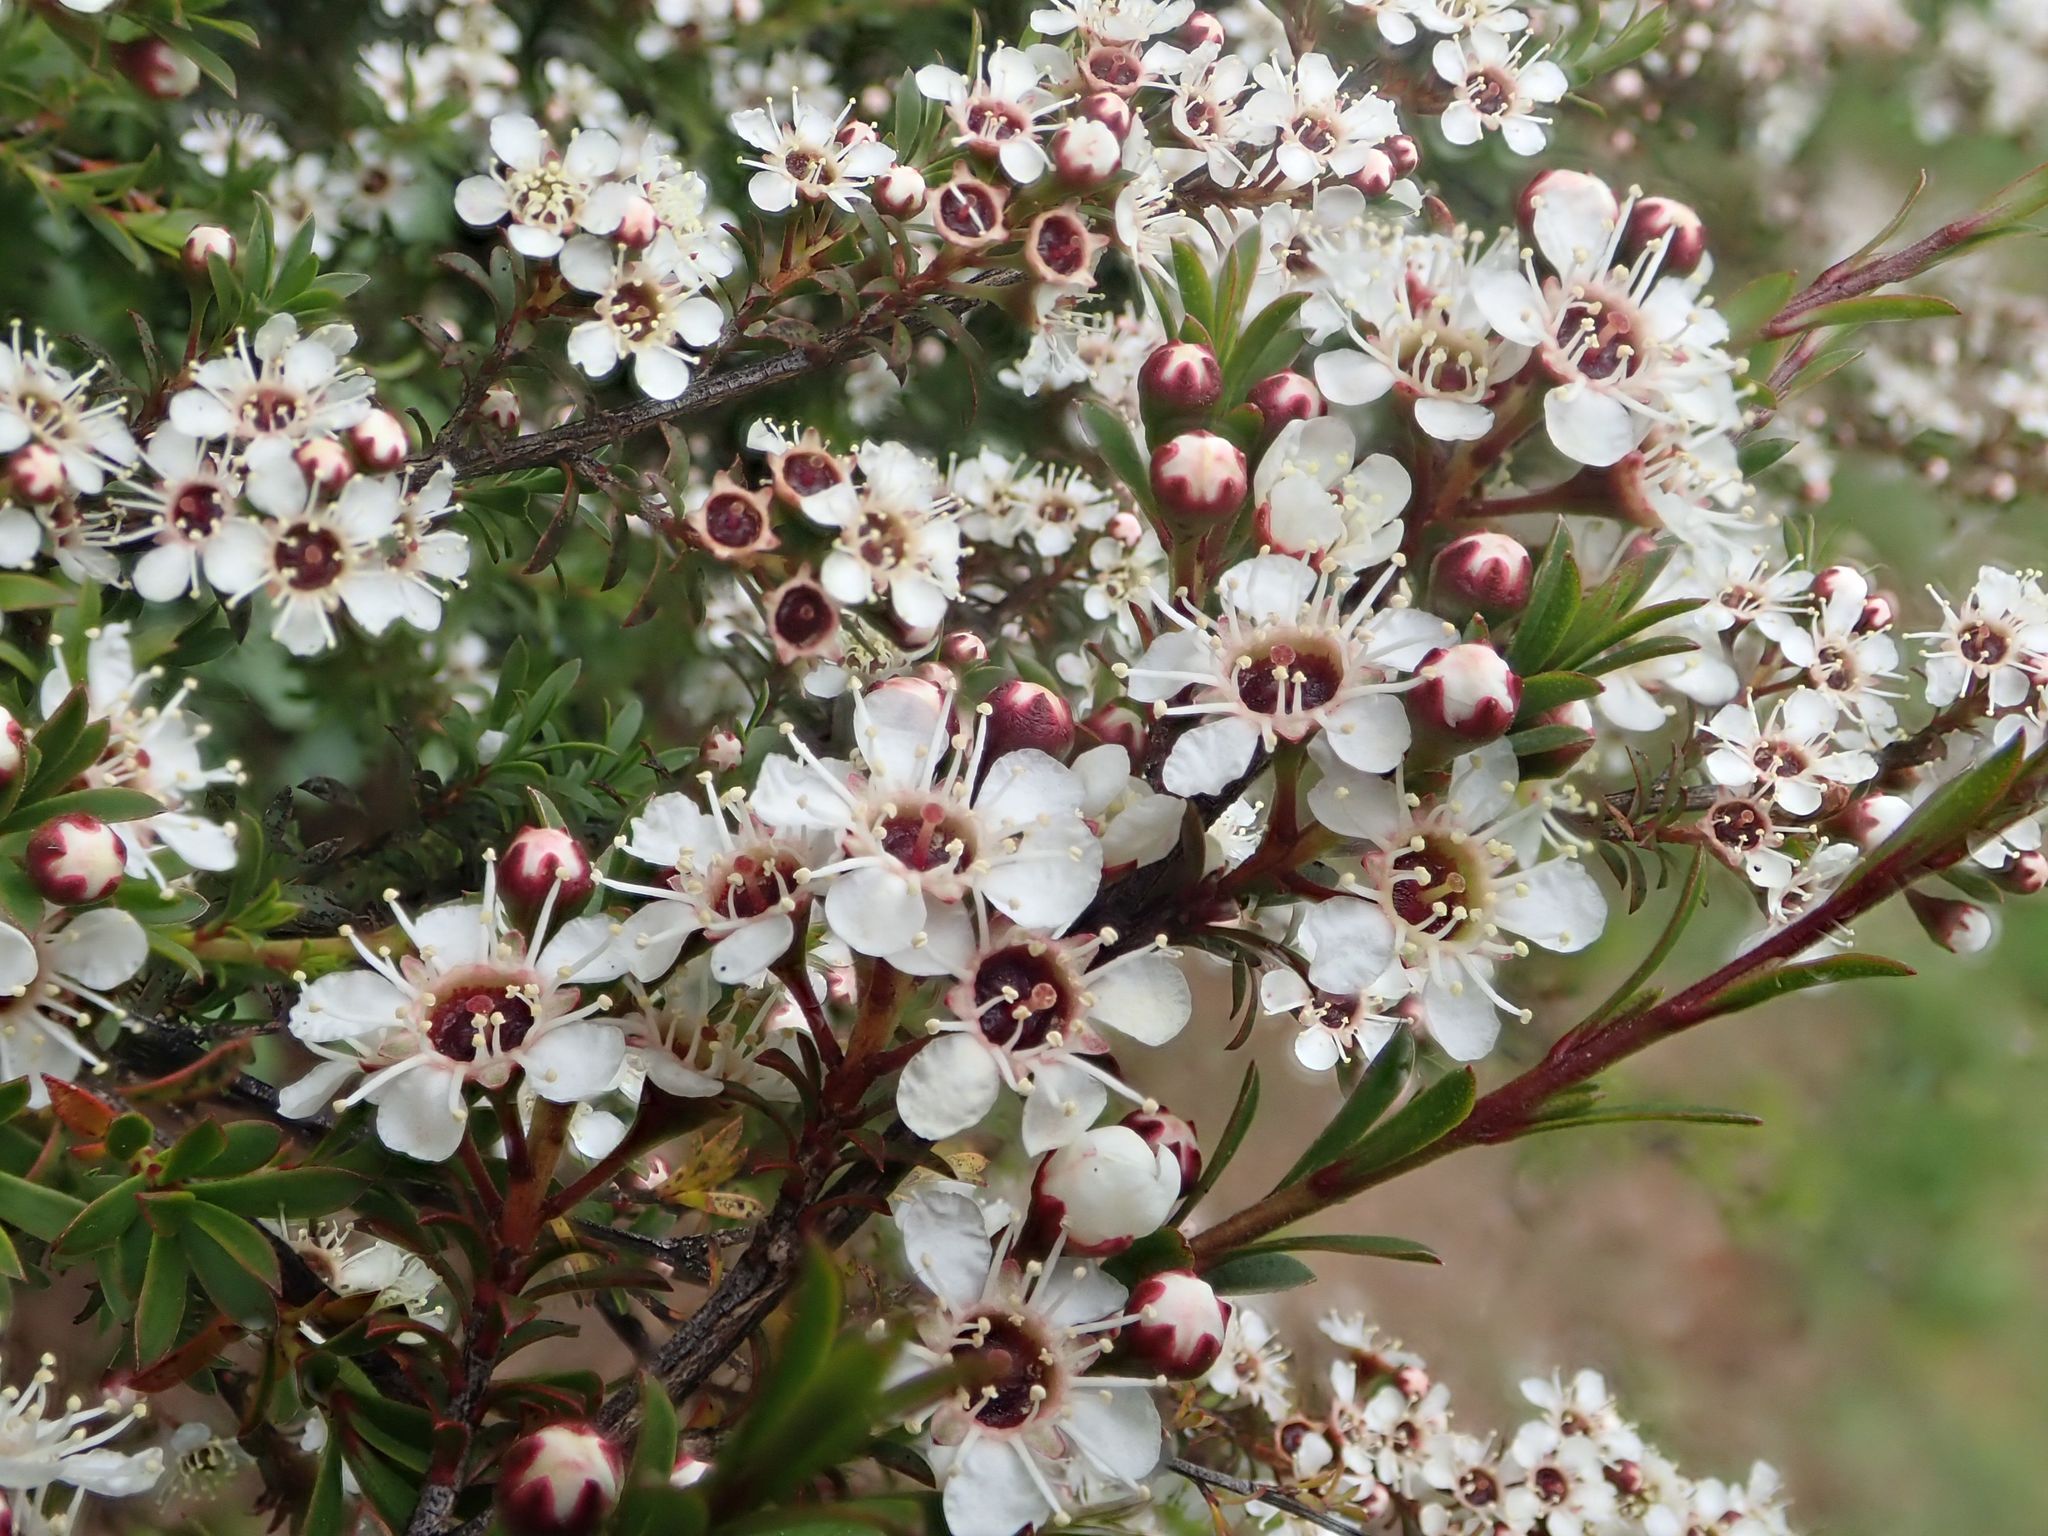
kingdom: Plantae
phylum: Tracheophyta
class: Magnoliopsida
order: Myrtales
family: Myrtaceae
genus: Kunzea
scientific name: Kunzea robusta
